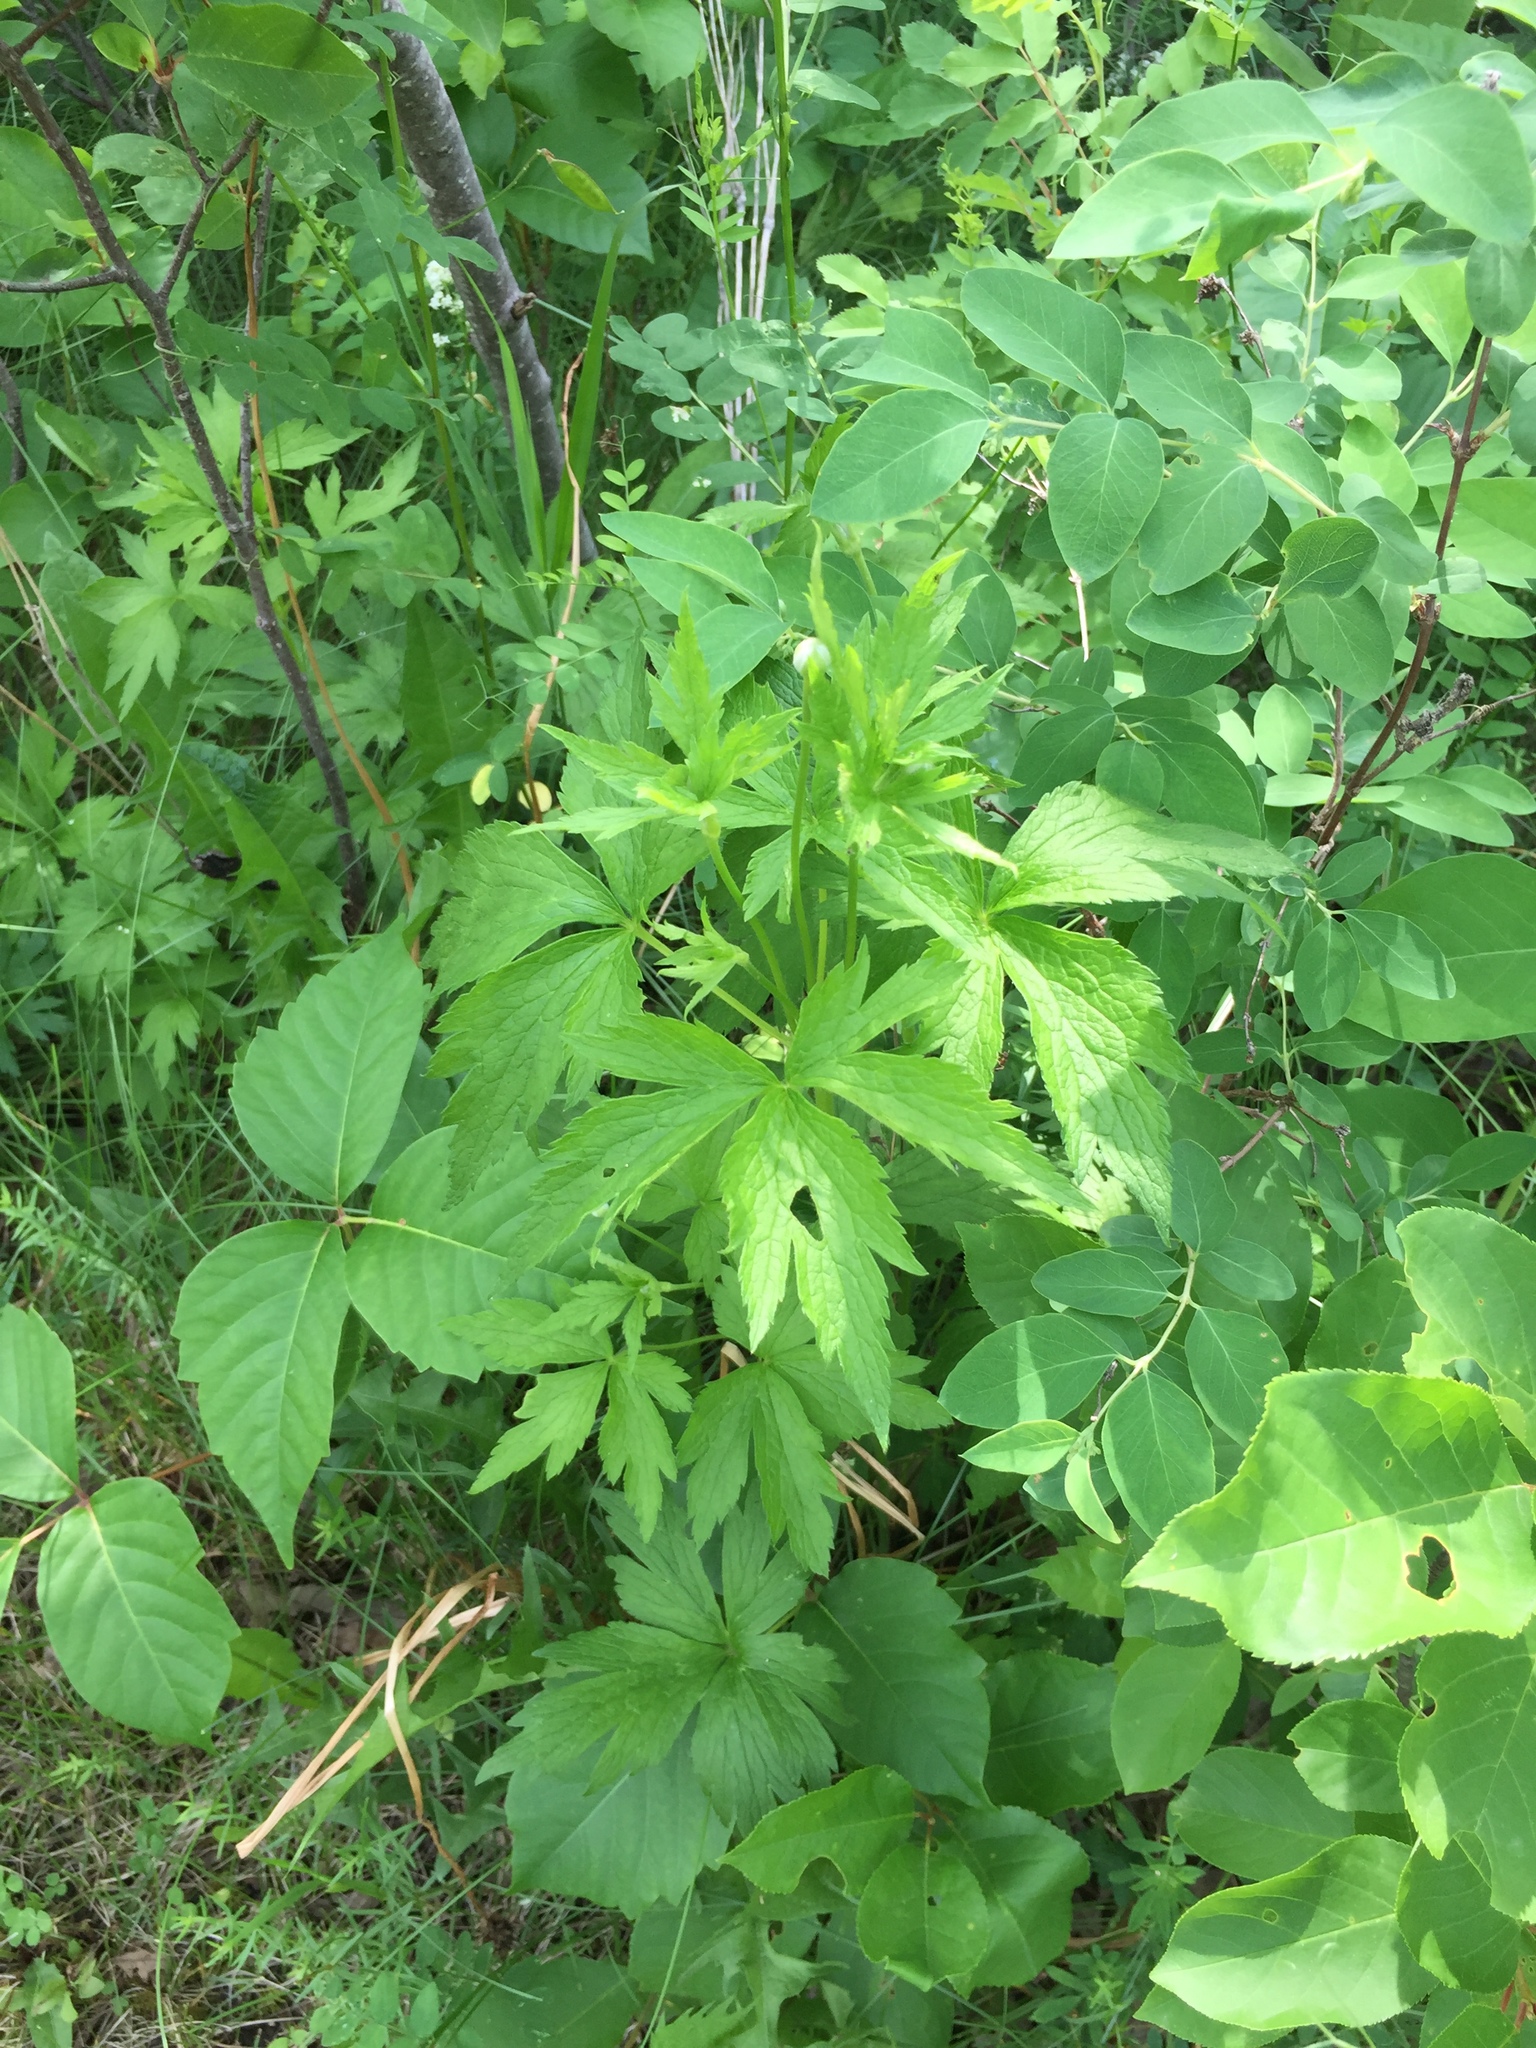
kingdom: Plantae
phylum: Tracheophyta
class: Magnoliopsida
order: Ranunculales
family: Ranunculaceae
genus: Anemone
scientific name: Anemone virginiana
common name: Tall anemone
